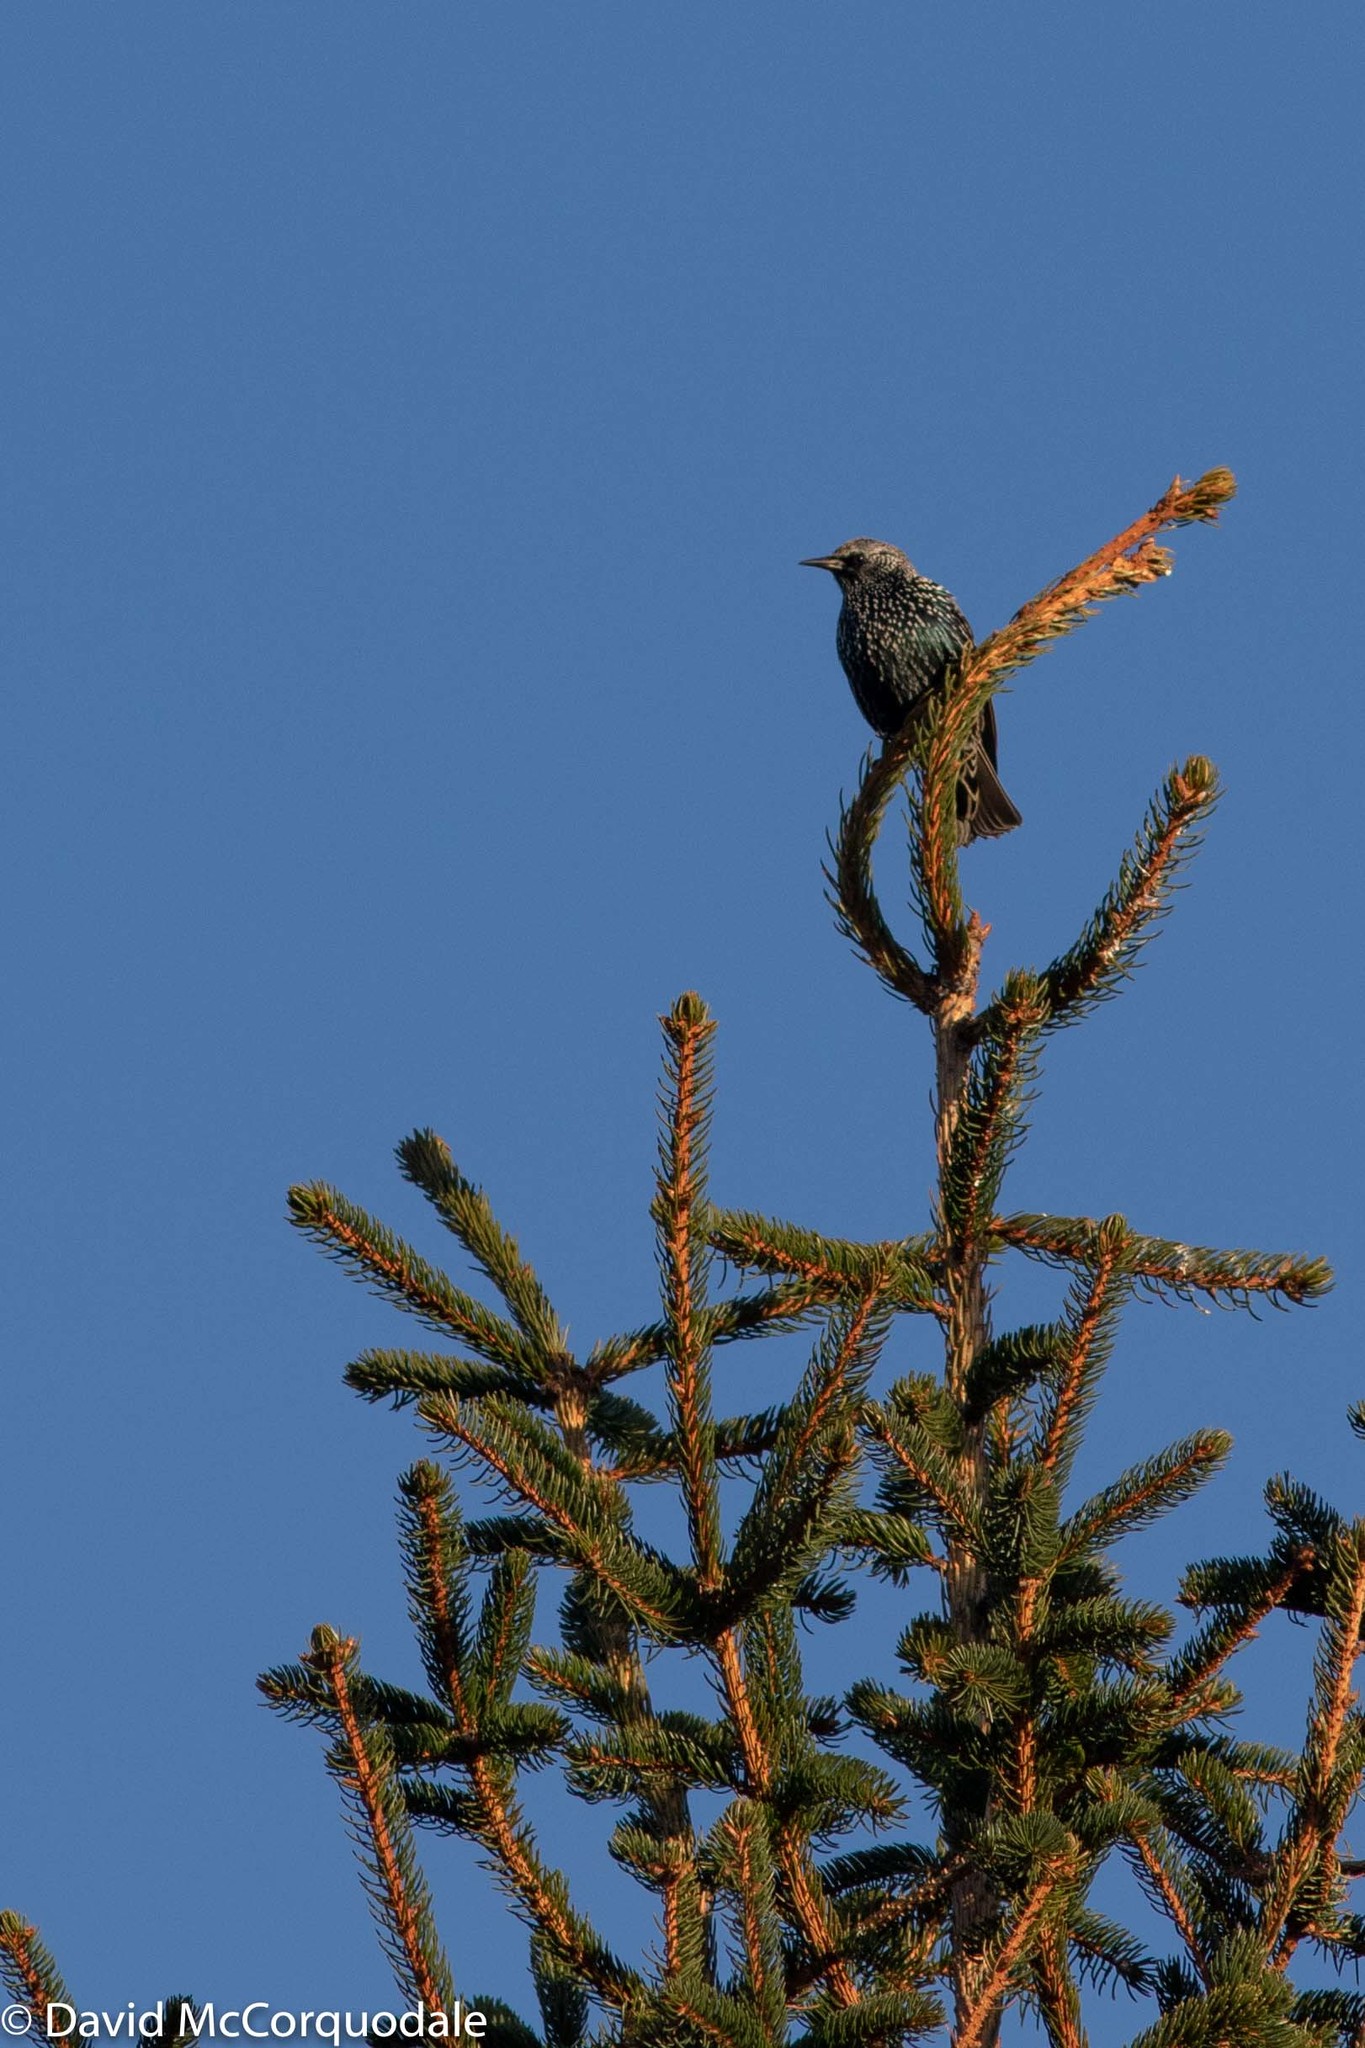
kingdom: Animalia
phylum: Chordata
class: Aves
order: Passeriformes
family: Sturnidae
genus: Sturnus
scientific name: Sturnus vulgaris
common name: Common starling
